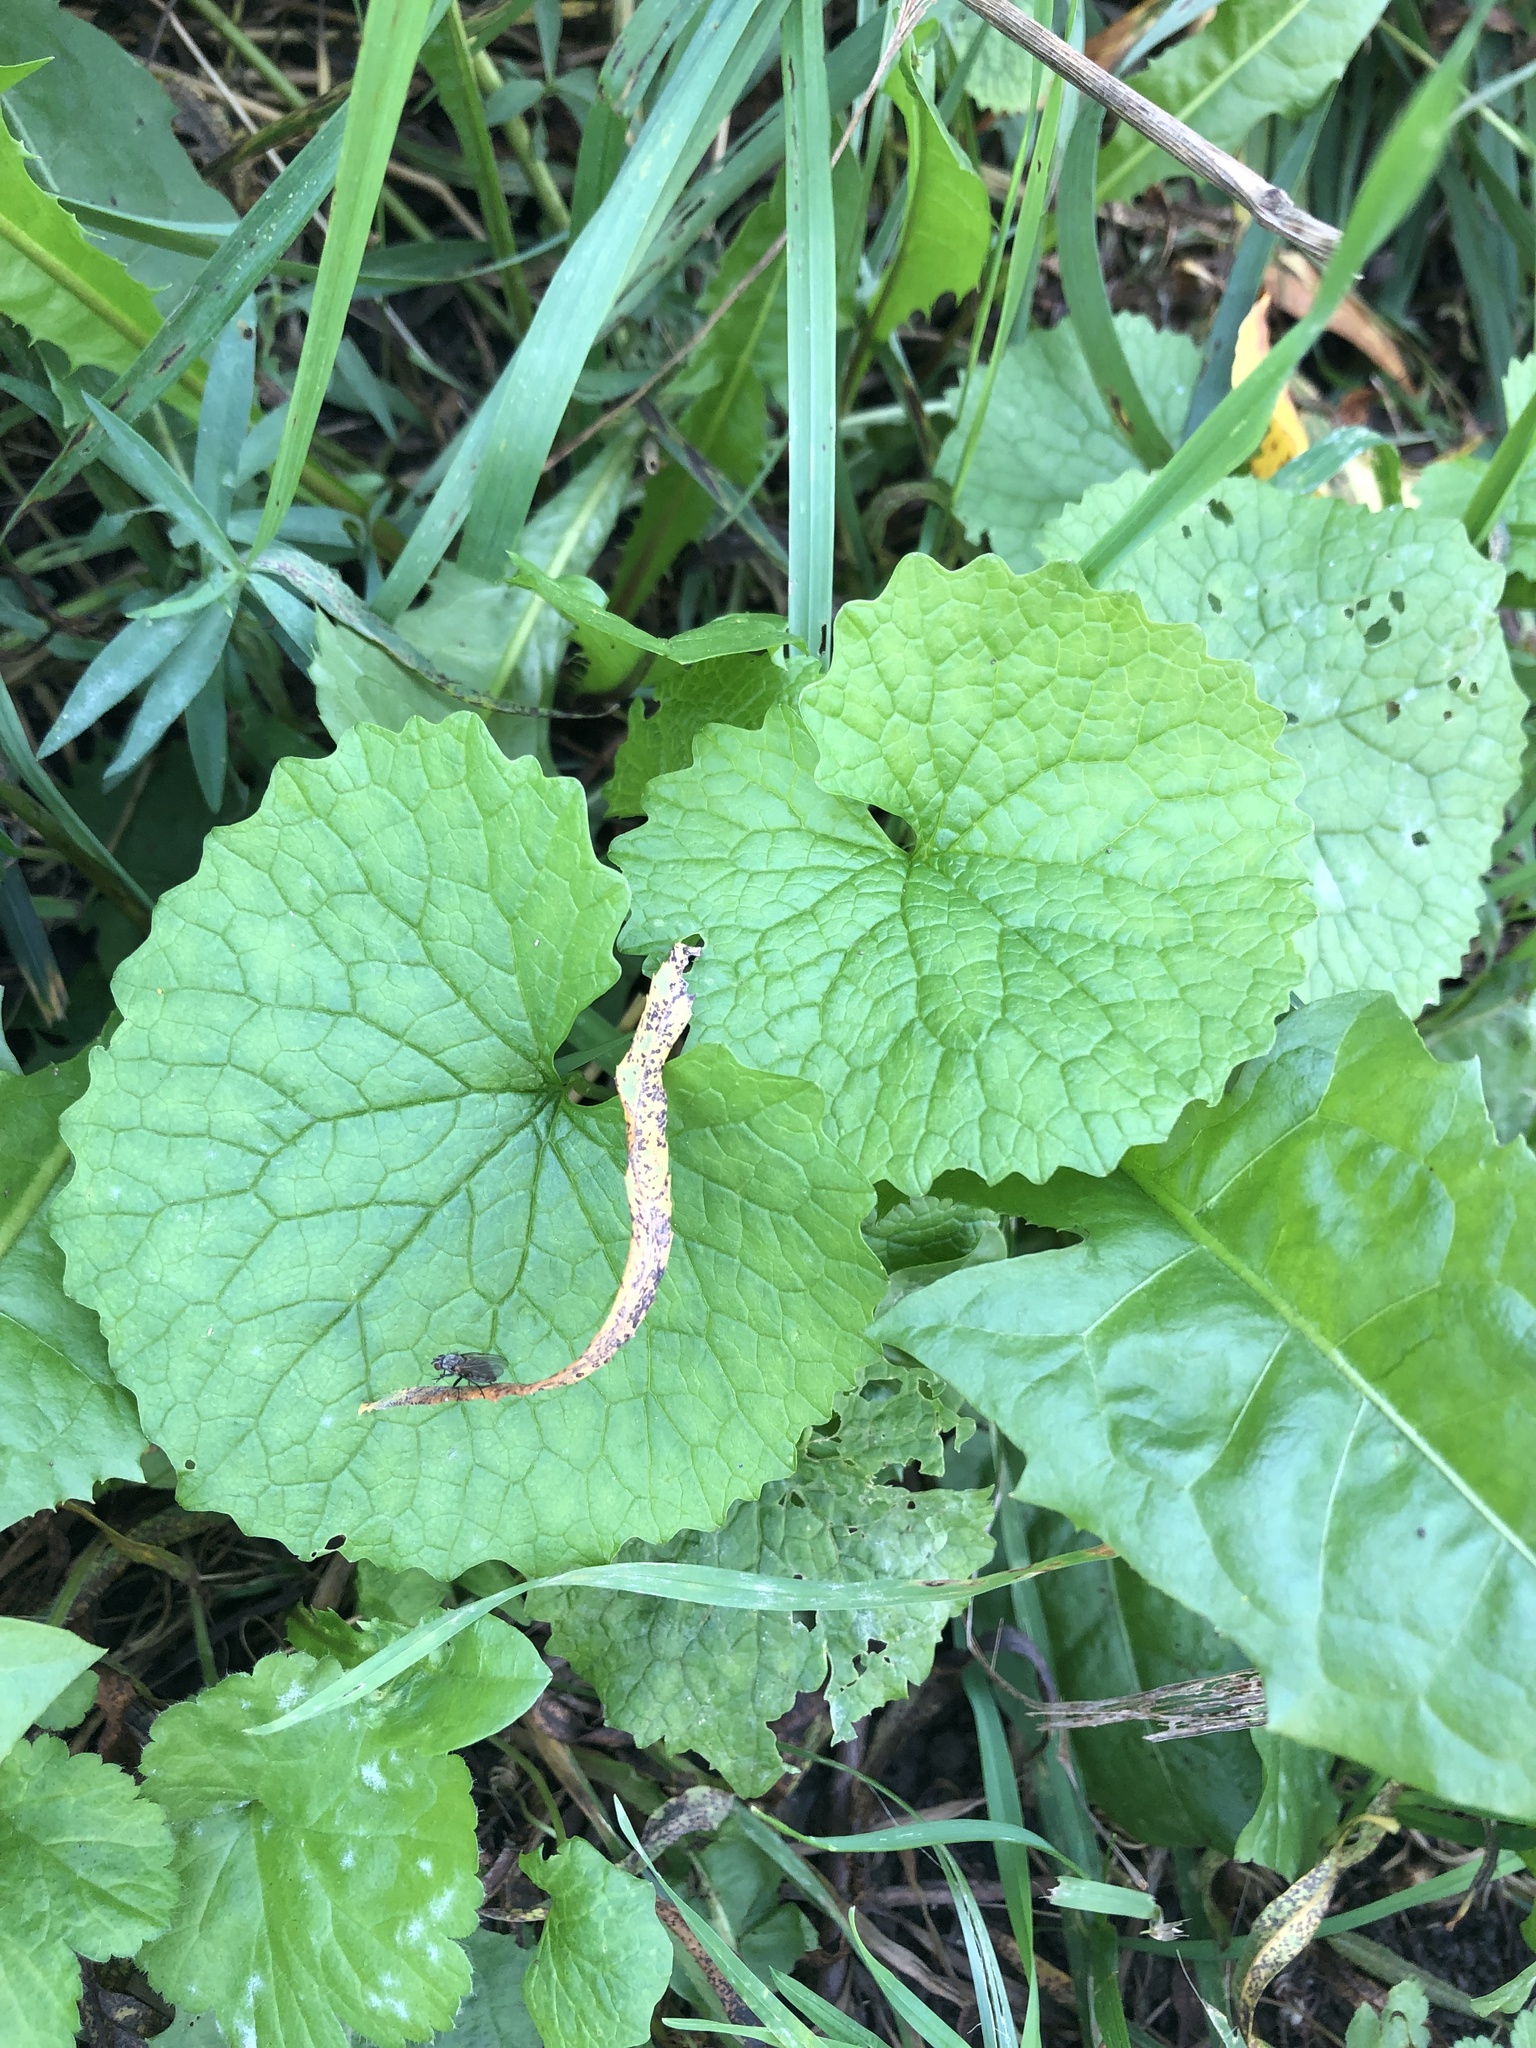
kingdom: Plantae
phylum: Tracheophyta
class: Magnoliopsida
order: Brassicales
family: Brassicaceae
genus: Alliaria
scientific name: Alliaria petiolata
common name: Garlic mustard
